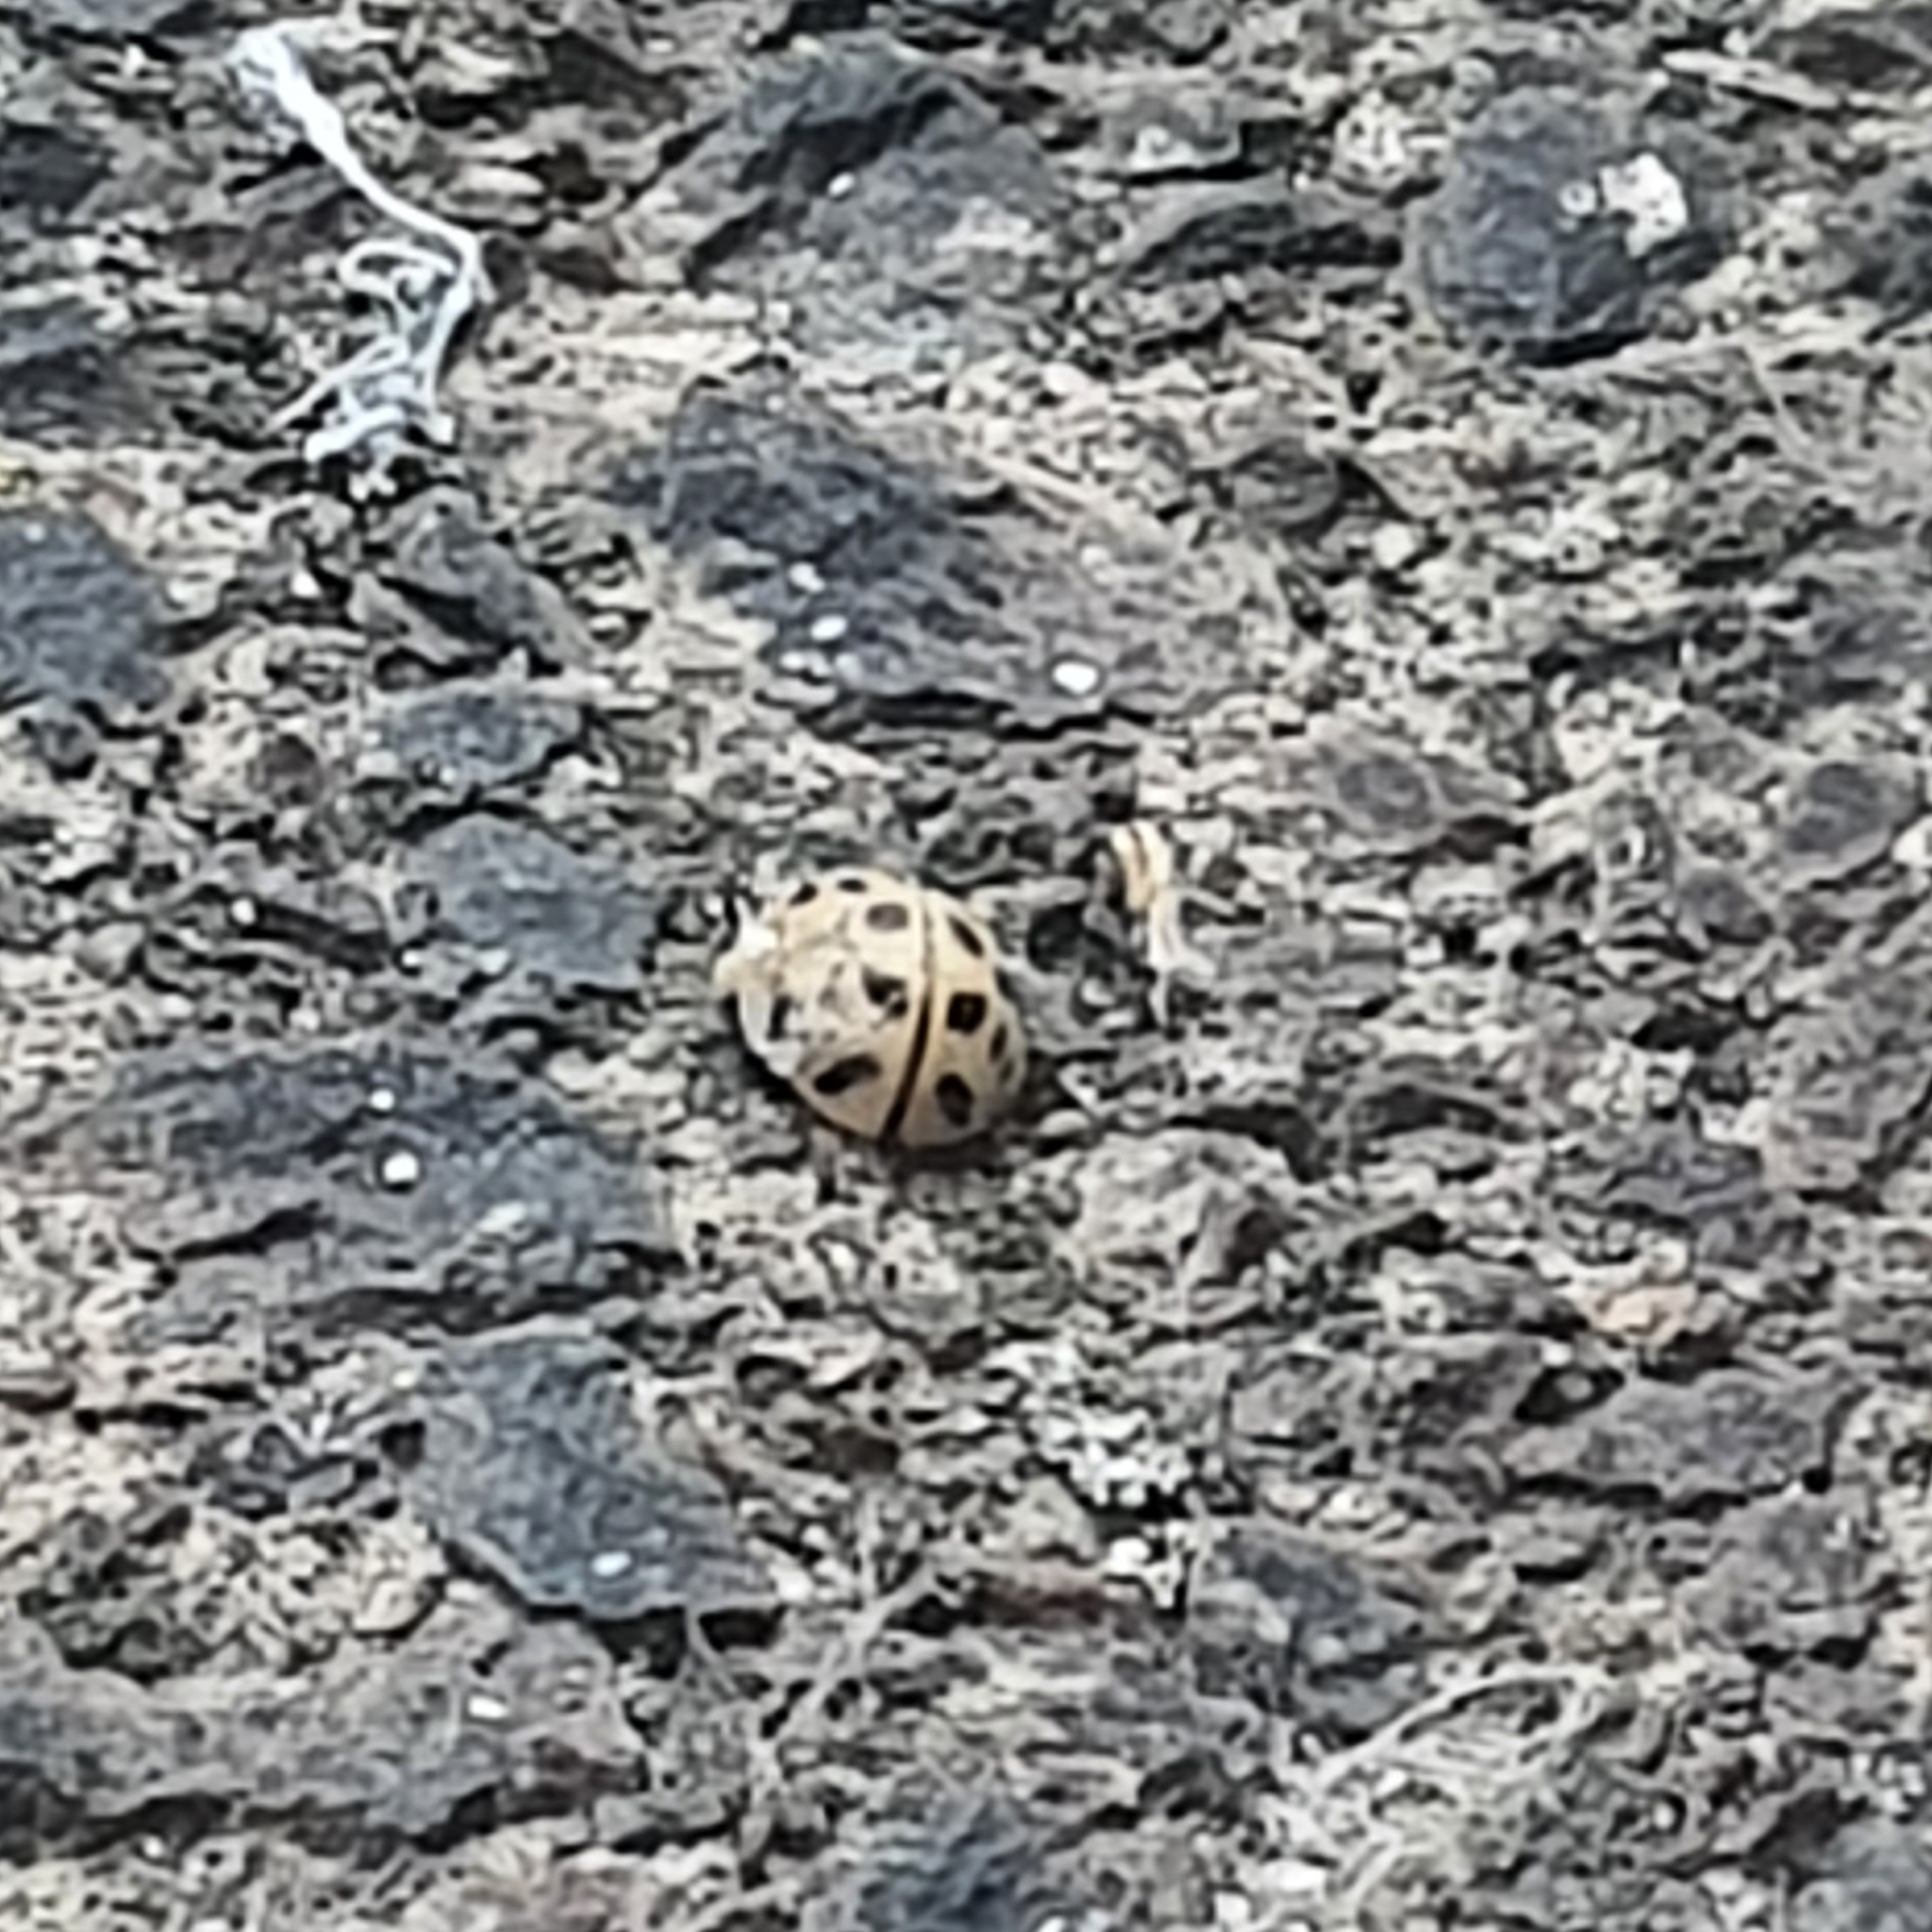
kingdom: Animalia
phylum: Arthropoda
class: Insecta
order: Coleoptera
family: Coccinellidae
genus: Harmonia
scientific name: Harmonia axyridis
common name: Harlequin ladybird
